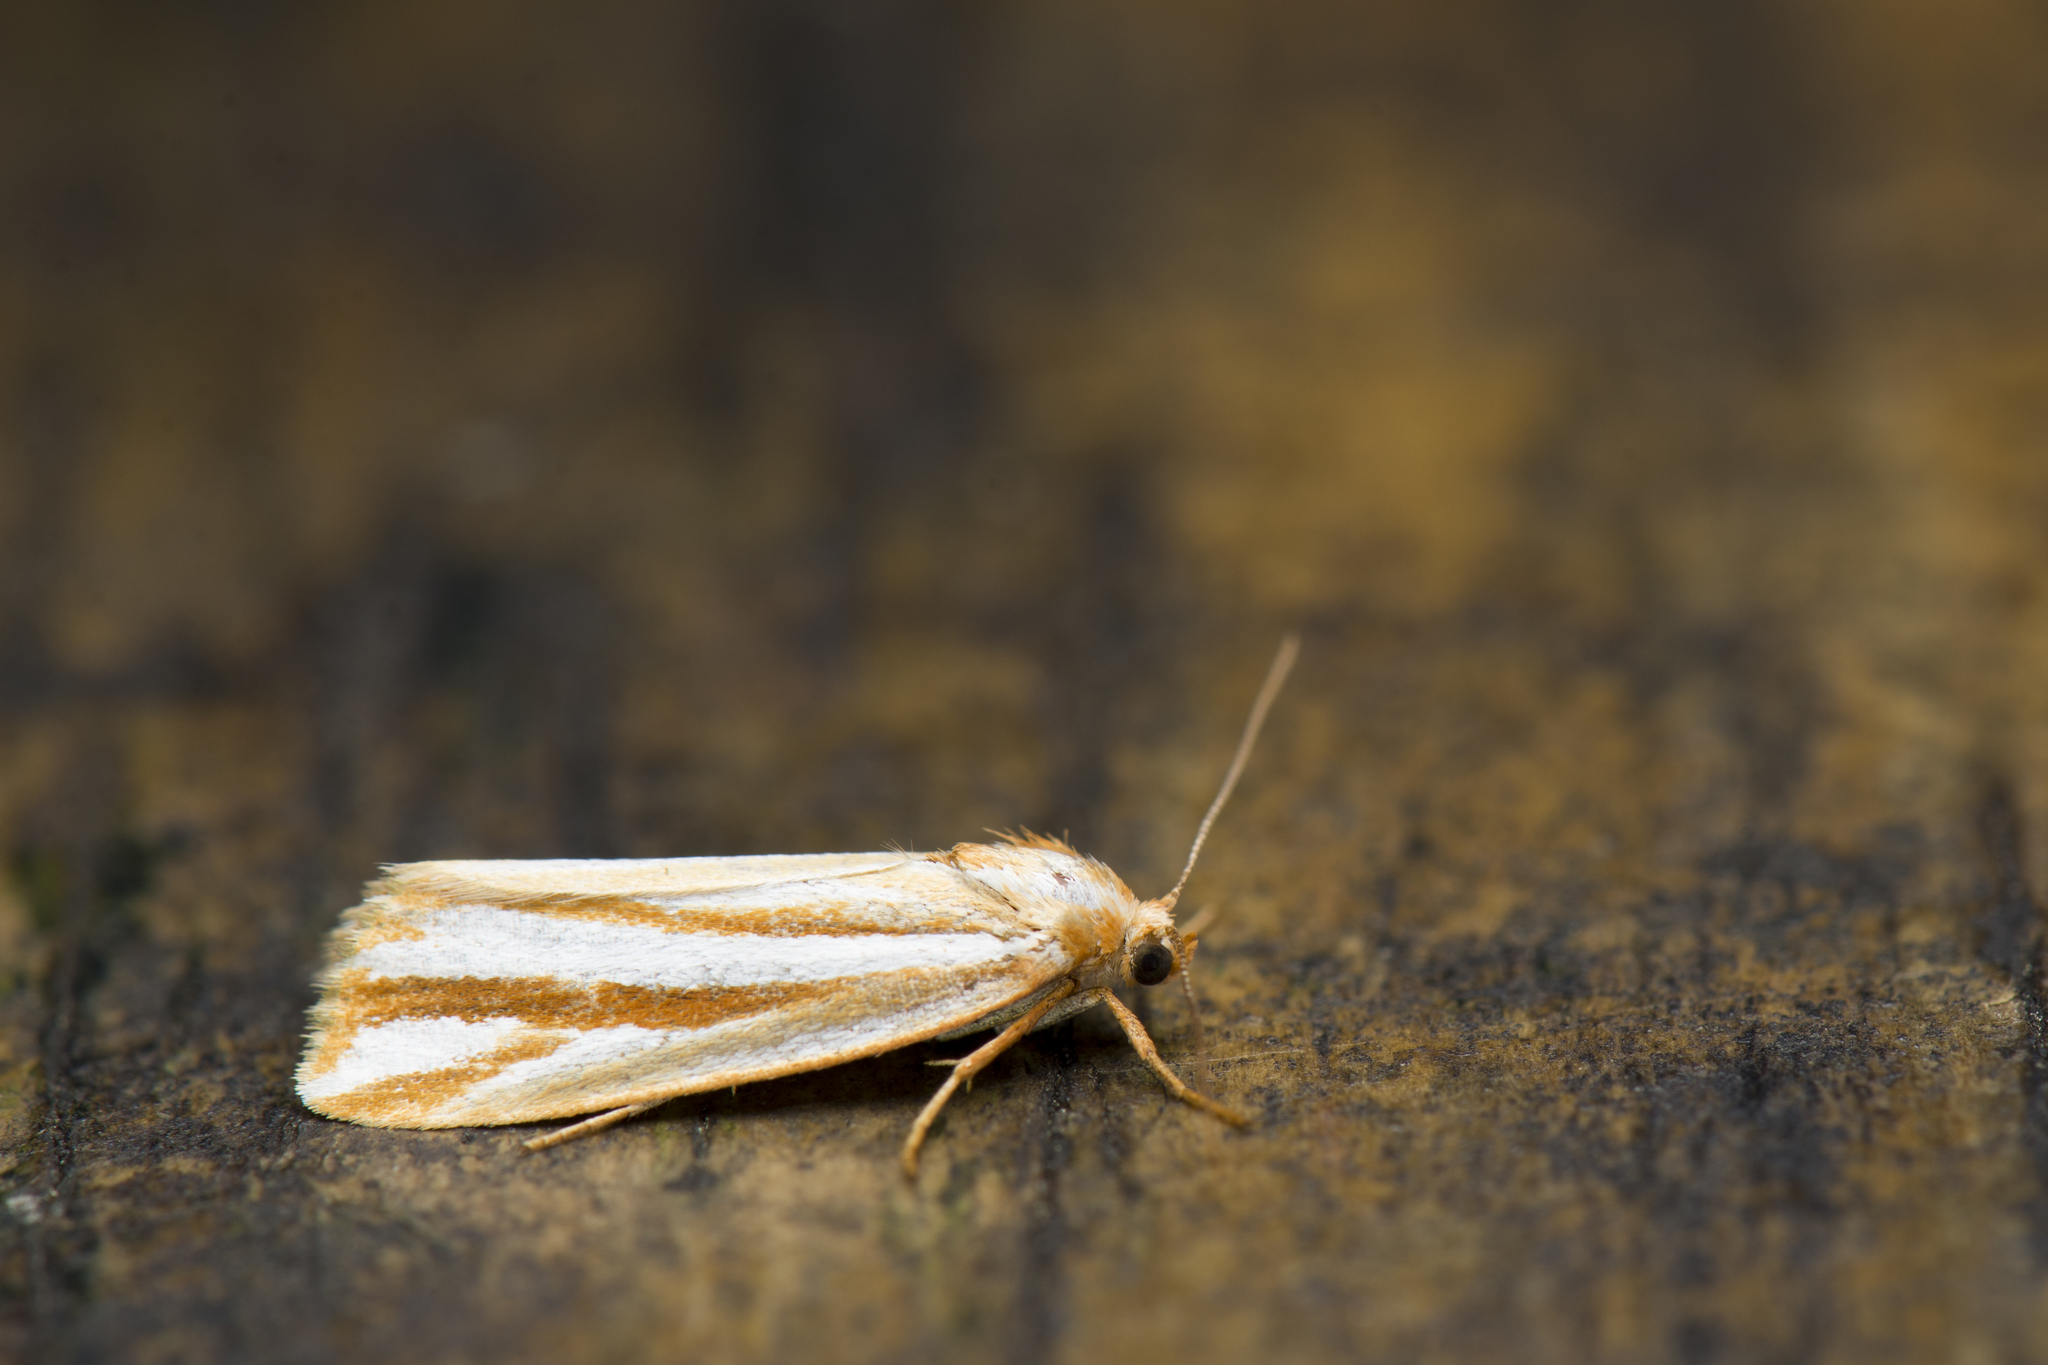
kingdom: Animalia
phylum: Arthropoda
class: Insecta
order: Lepidoptera
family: Noctuidae
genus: Narangodes
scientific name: Narangodes argyrostrigatus
